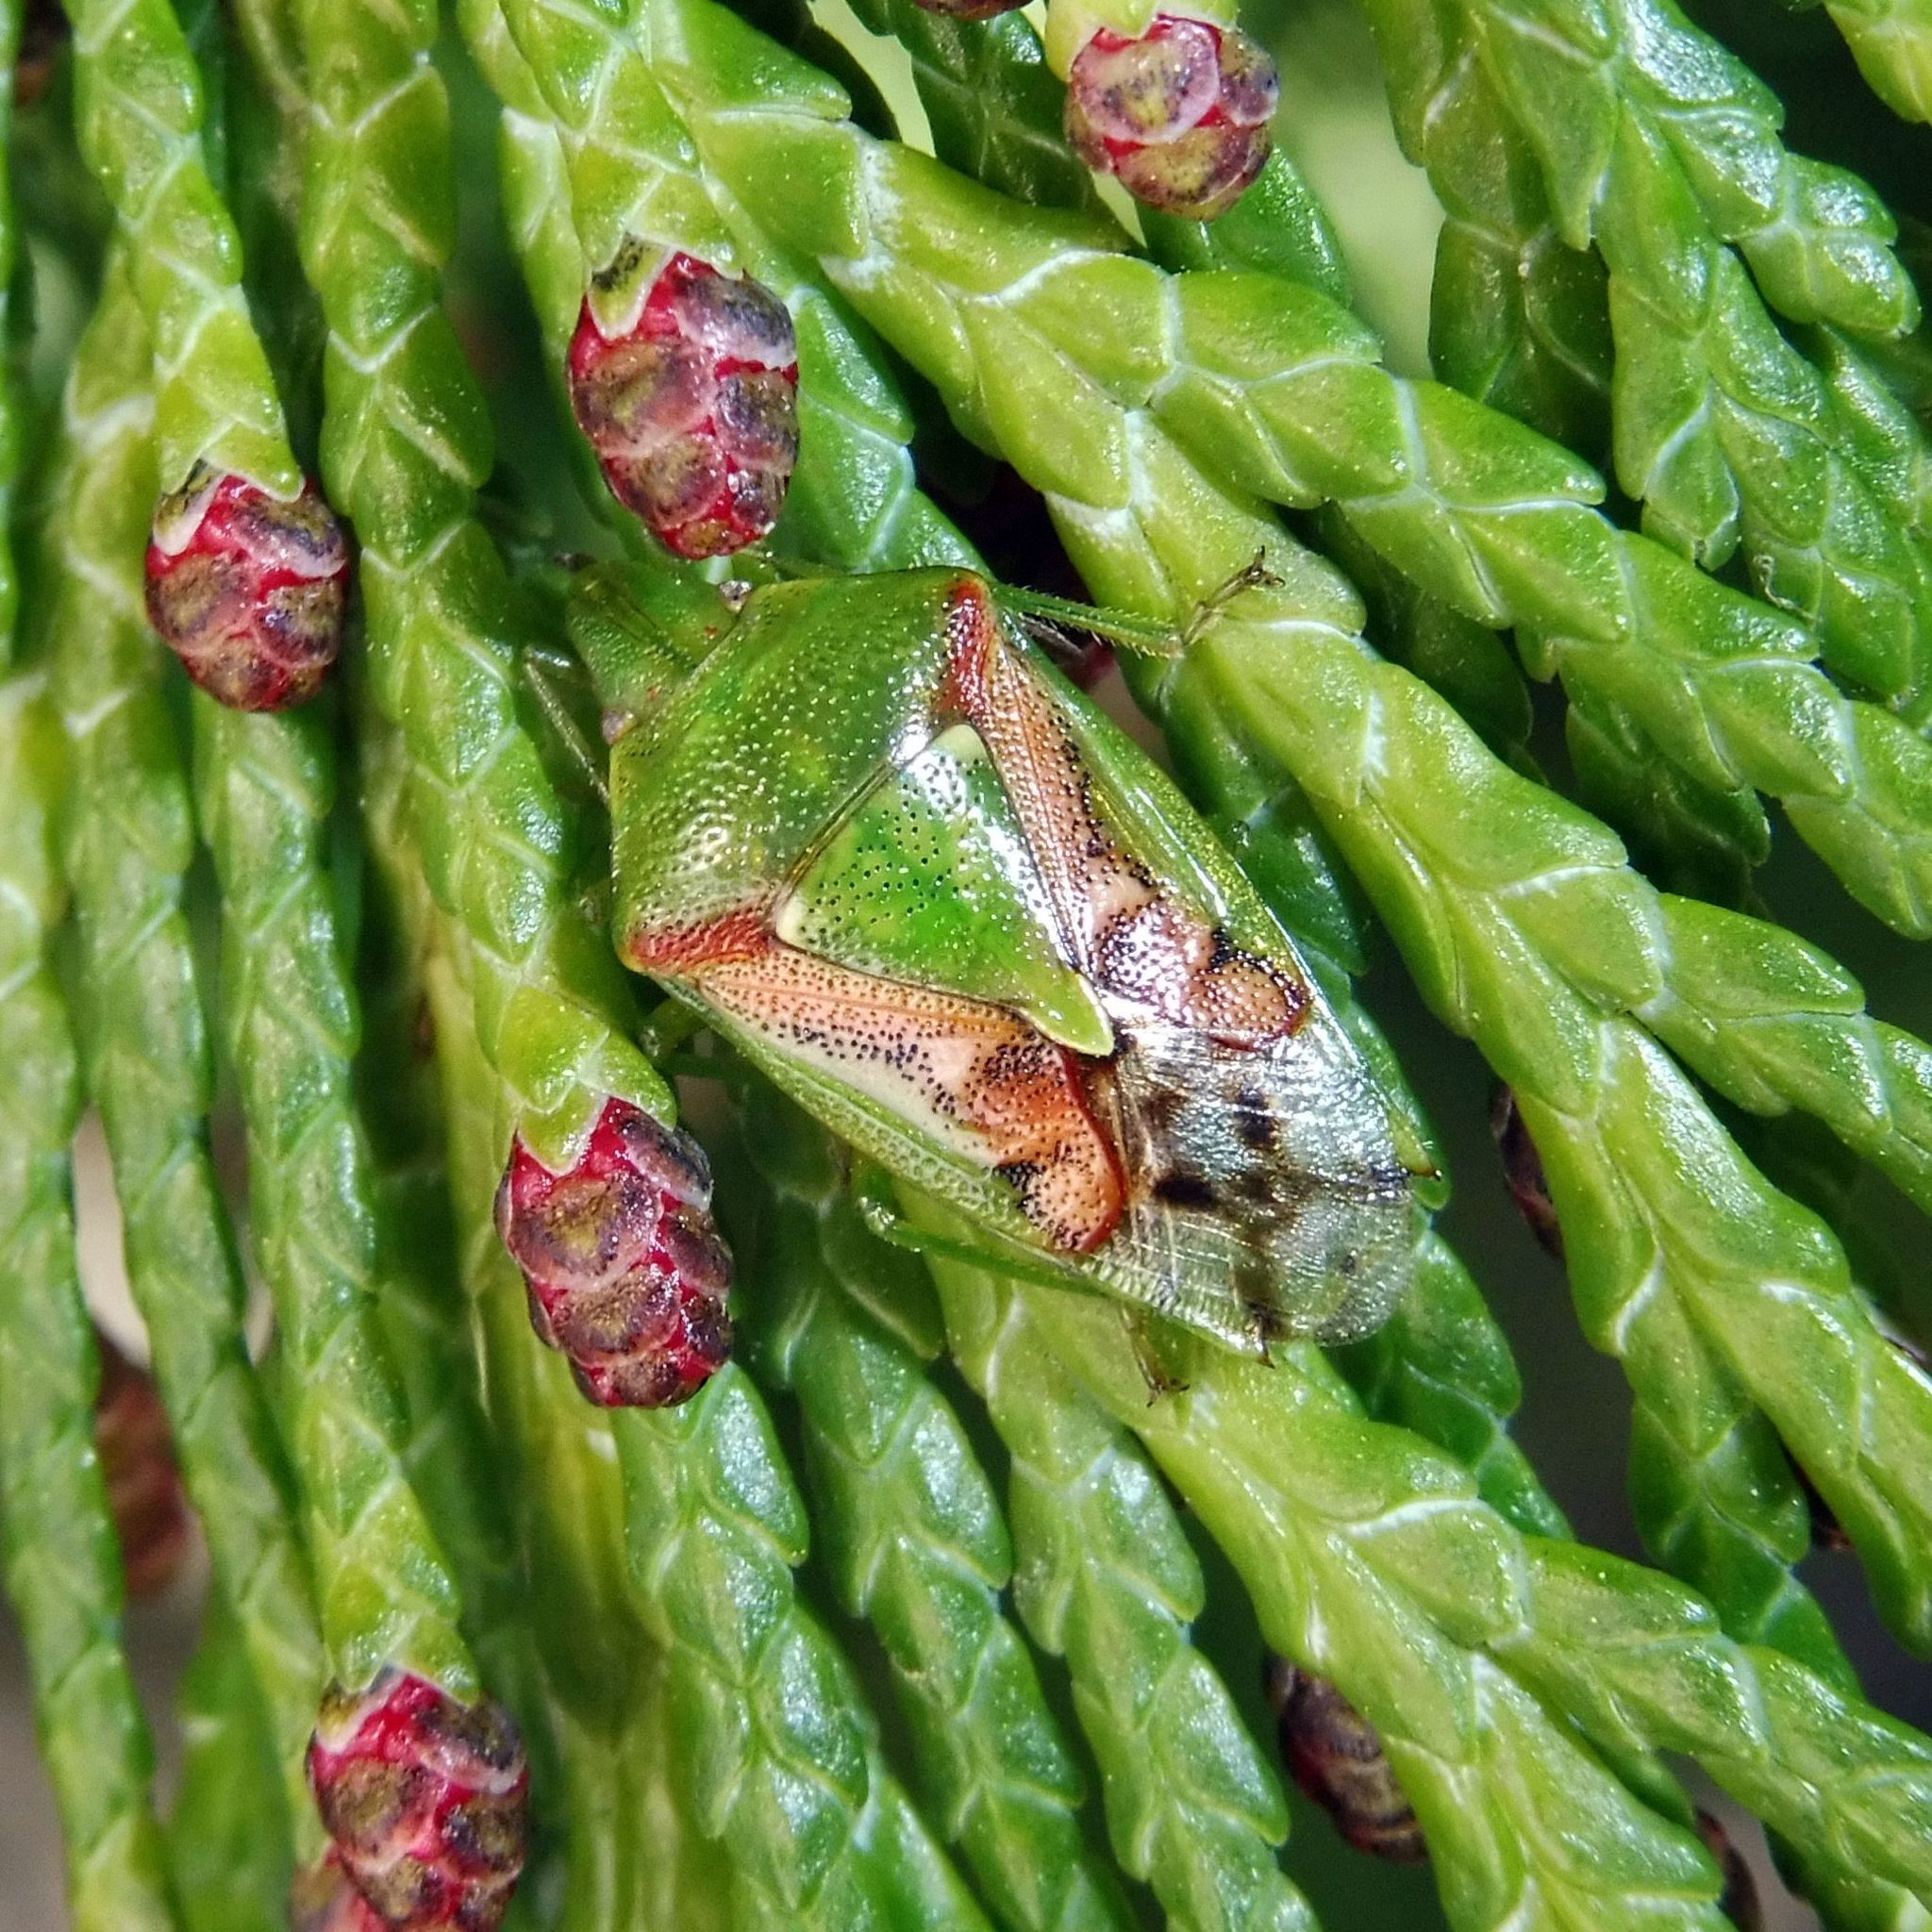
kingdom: Animalia
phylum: Arthropoda
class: Insecta
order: Hemiptera
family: Acanthosomatidae
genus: Cyphostethus
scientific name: Cyphostethus tristriatus
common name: Juniper shieldbug
